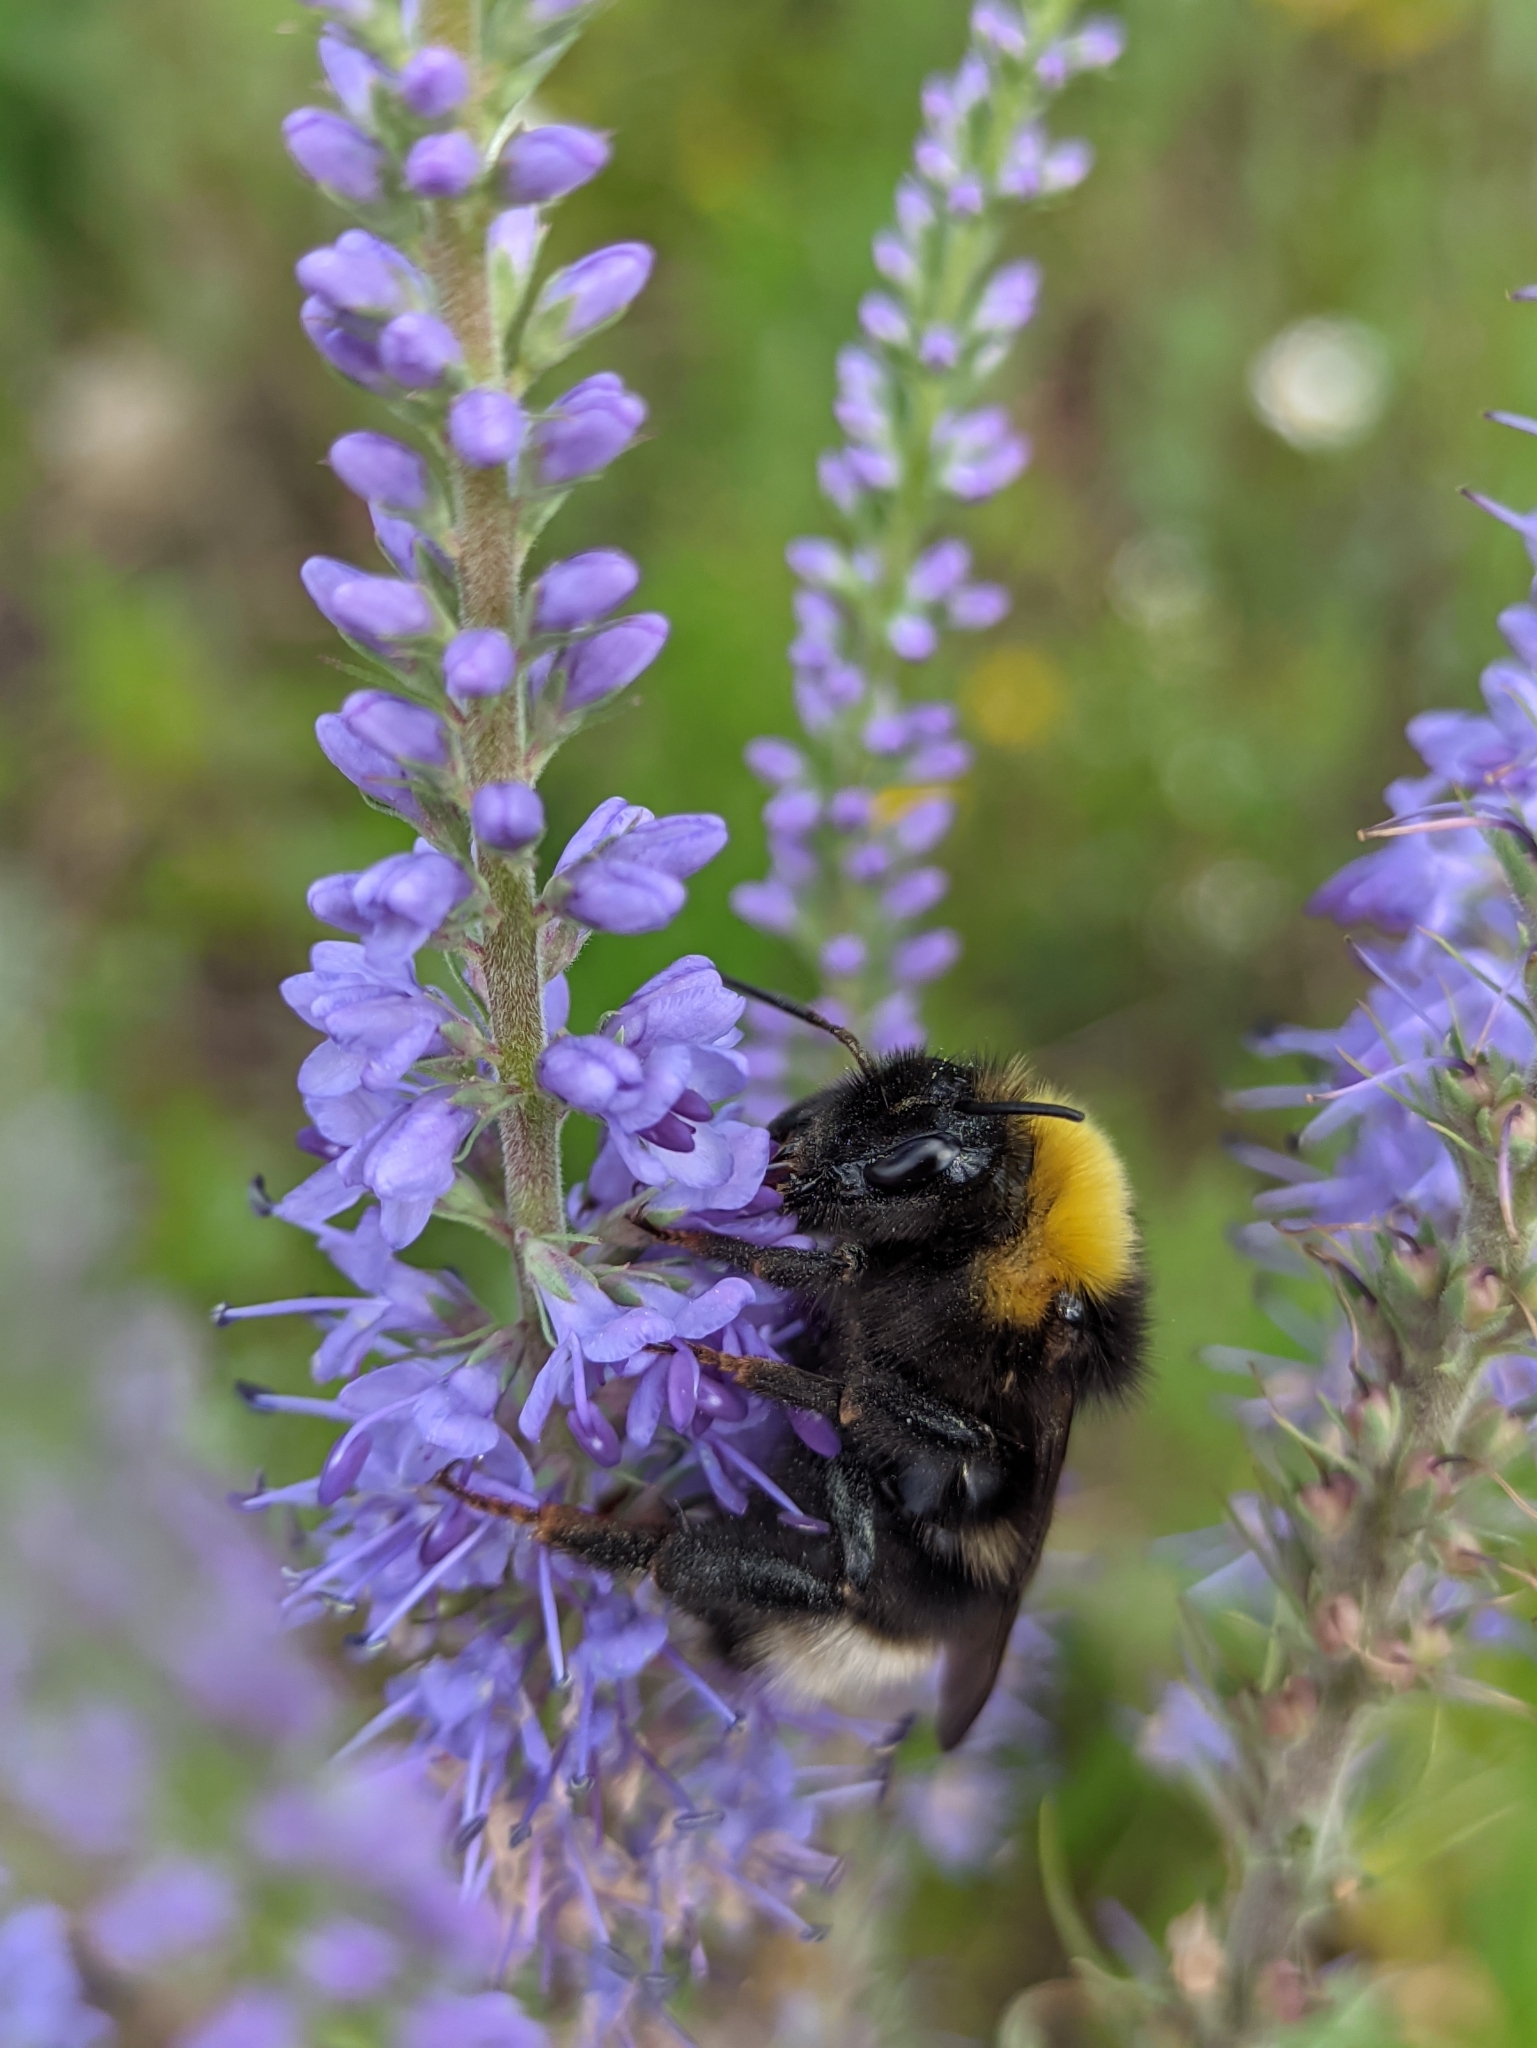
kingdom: Animalia
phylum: Arthropoda
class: Insecta
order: Hymenoptera
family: Apidae
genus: Bombus
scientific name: Bombus norvegicus
